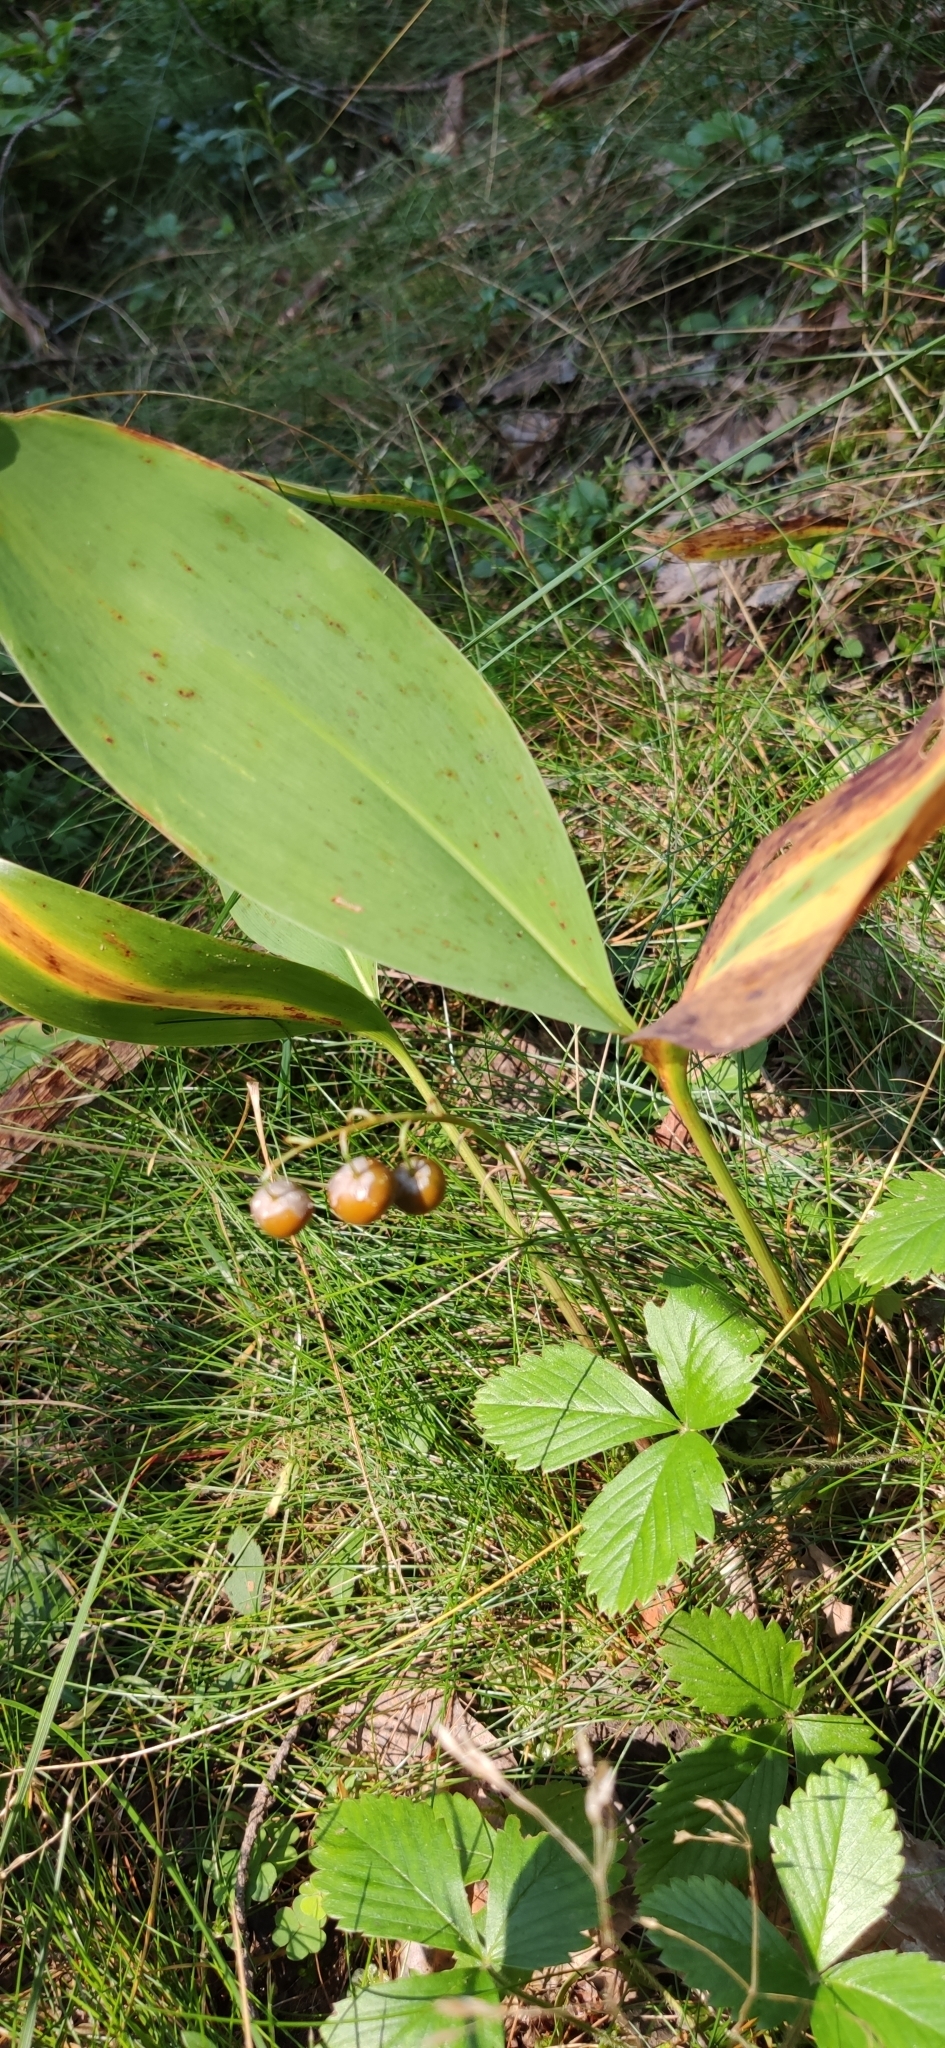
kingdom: Plantae
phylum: Tracheophyta
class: Liliopsida
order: Asparagales
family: Asparagaceae
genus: Convallaria
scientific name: Convallaria majalis
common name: Lily-of-the-valley
